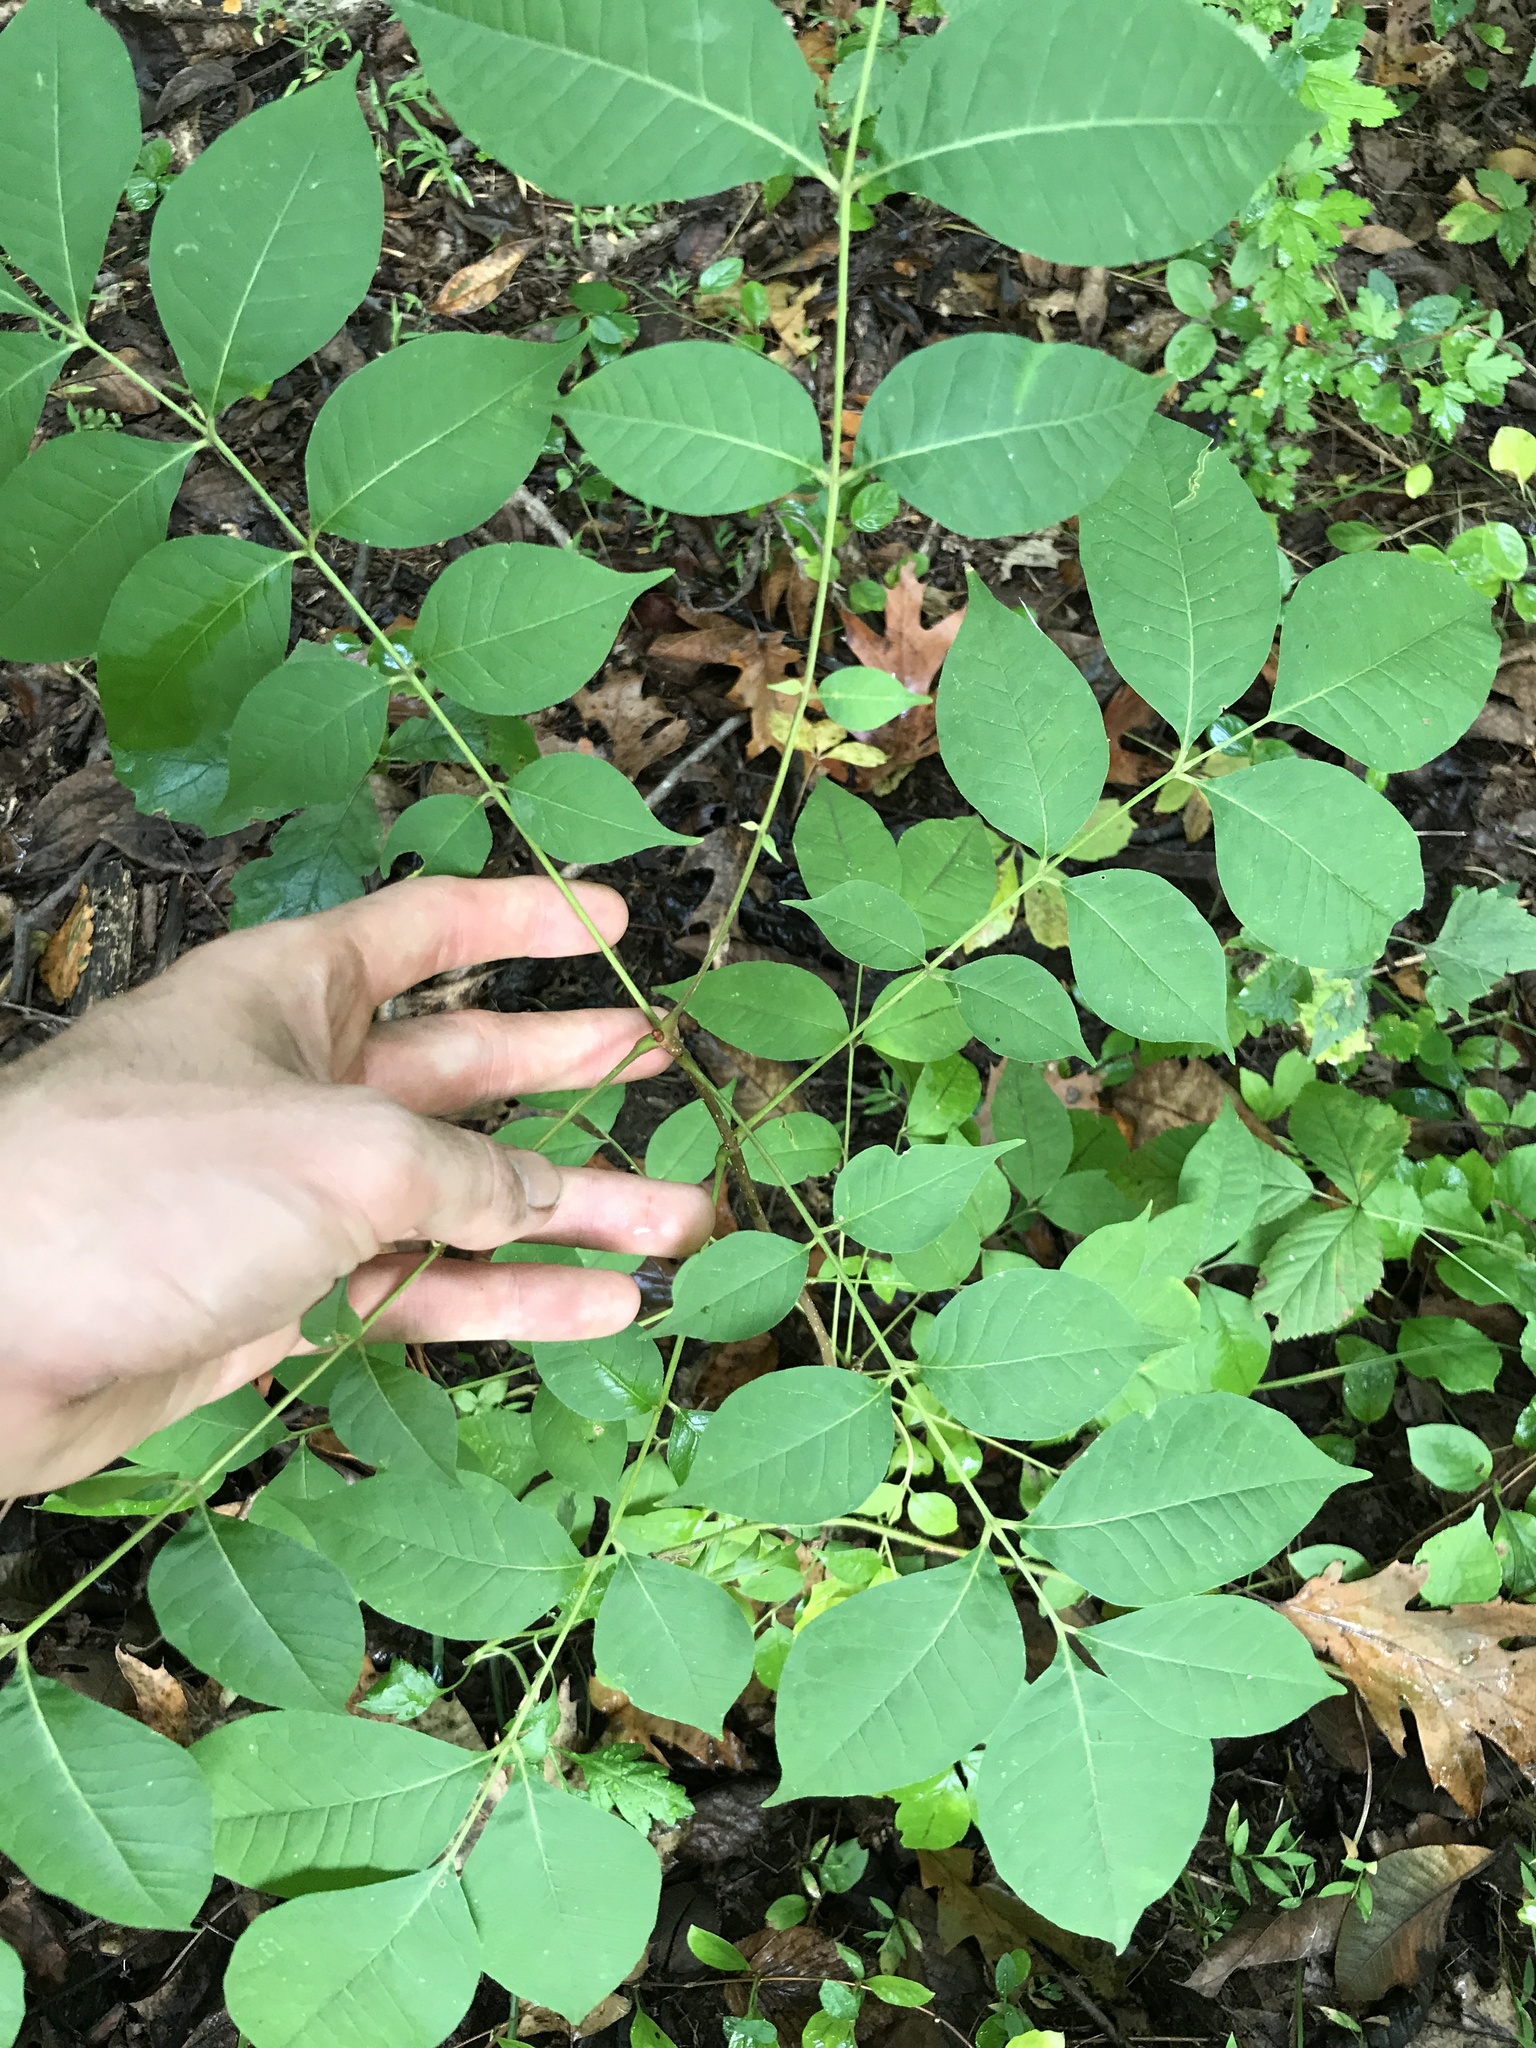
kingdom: Plantae
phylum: Tracheophyta
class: Magnoliopsida
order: Sapindales
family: Rutaceae
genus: Phellodendron
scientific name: Phellodendron amurense
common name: Amur corktree
